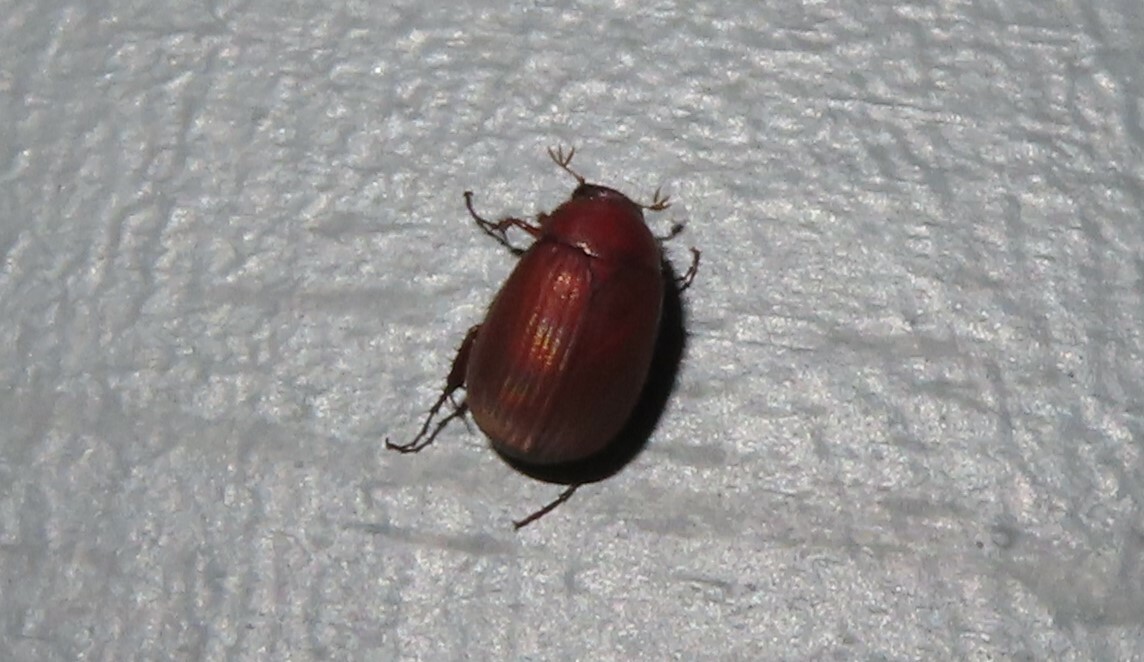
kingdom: Animalia
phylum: Arthropoda
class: Insecta
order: Coleoptera
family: Scarabaeidae
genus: Maladera
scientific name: Maladera formosae
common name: Asiatic garden beetle
